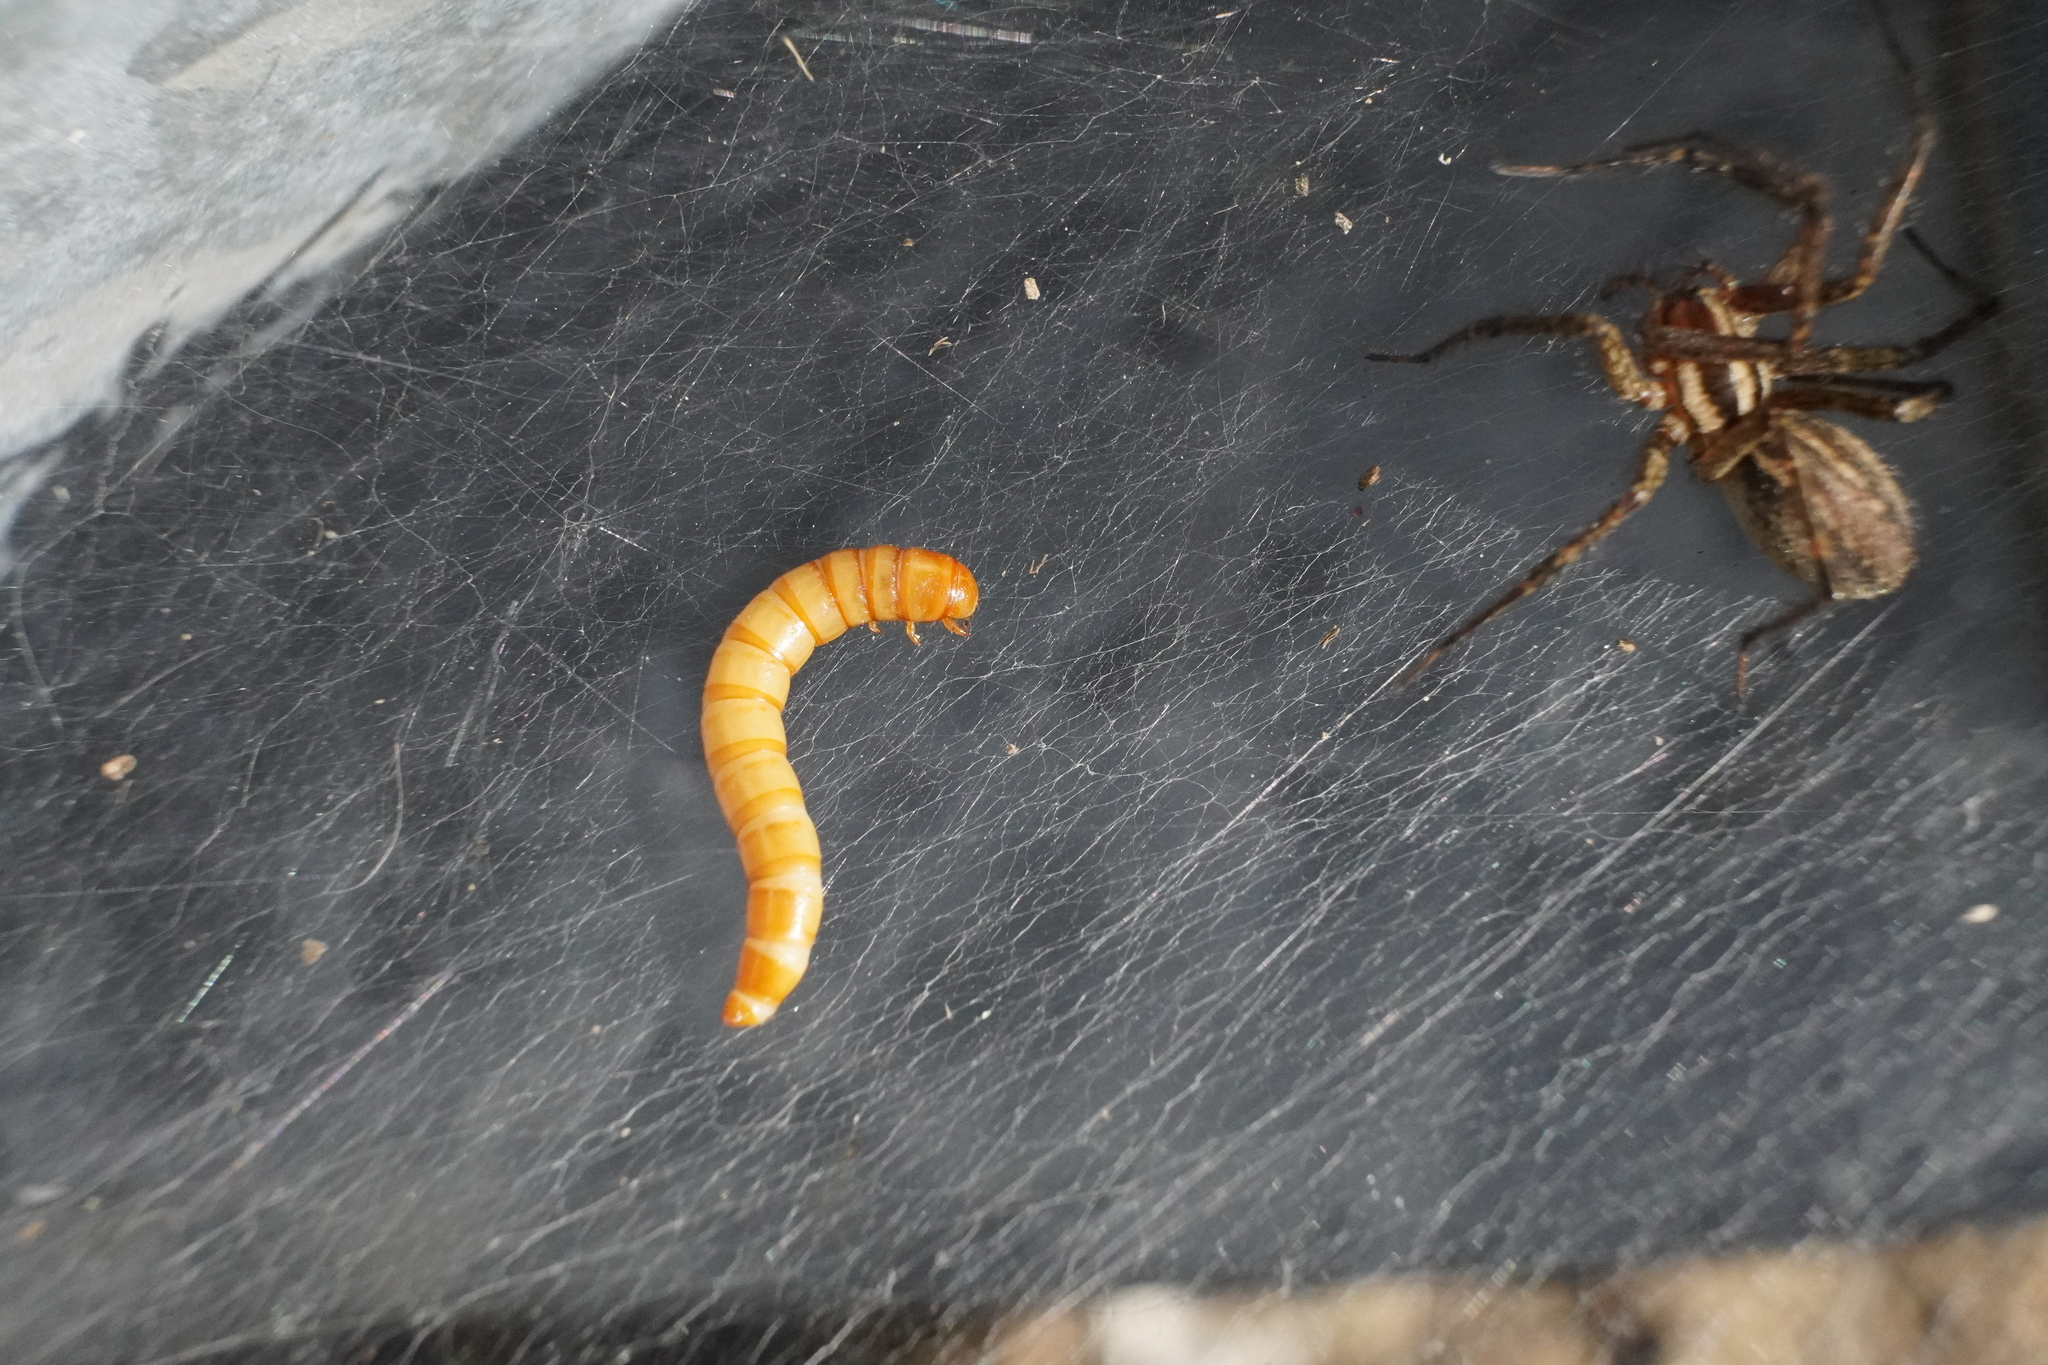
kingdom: Animalia
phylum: Arthropoda
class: Arachnida
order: Araneae
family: Agelenidae
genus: Agelenopsis
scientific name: Agelenopsis
